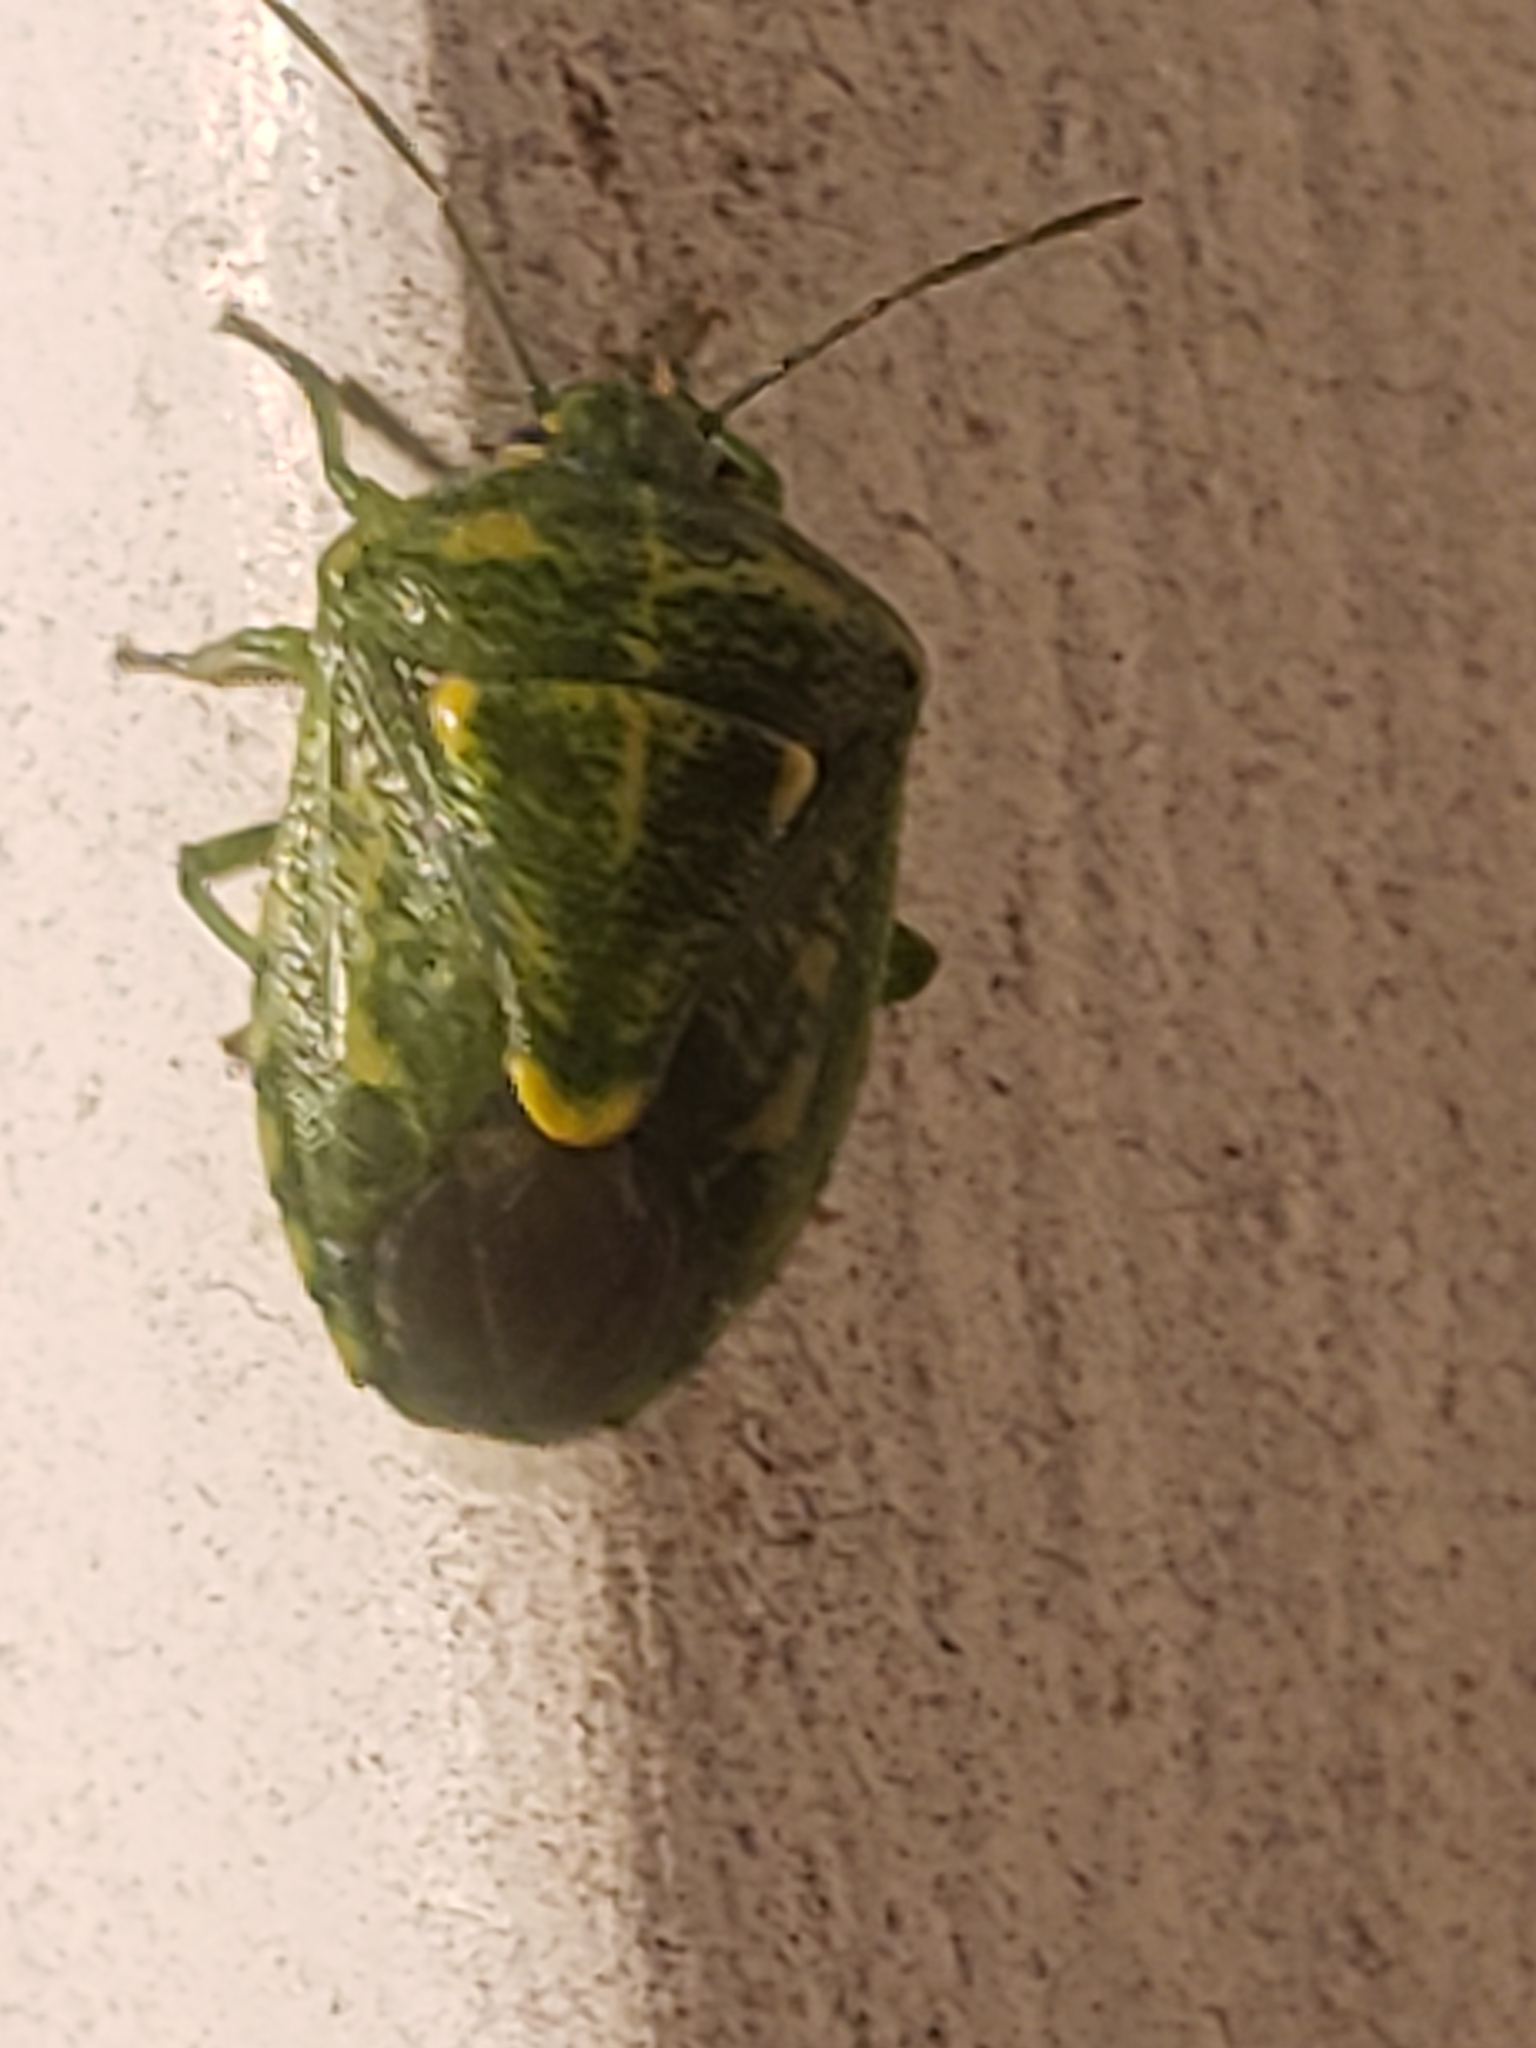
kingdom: Animalia
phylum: Arthropoda
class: Insecta
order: Hemiptera
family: Pentatomidae
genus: Banasa
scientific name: Banasa euchlora
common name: Cedar berry bug
